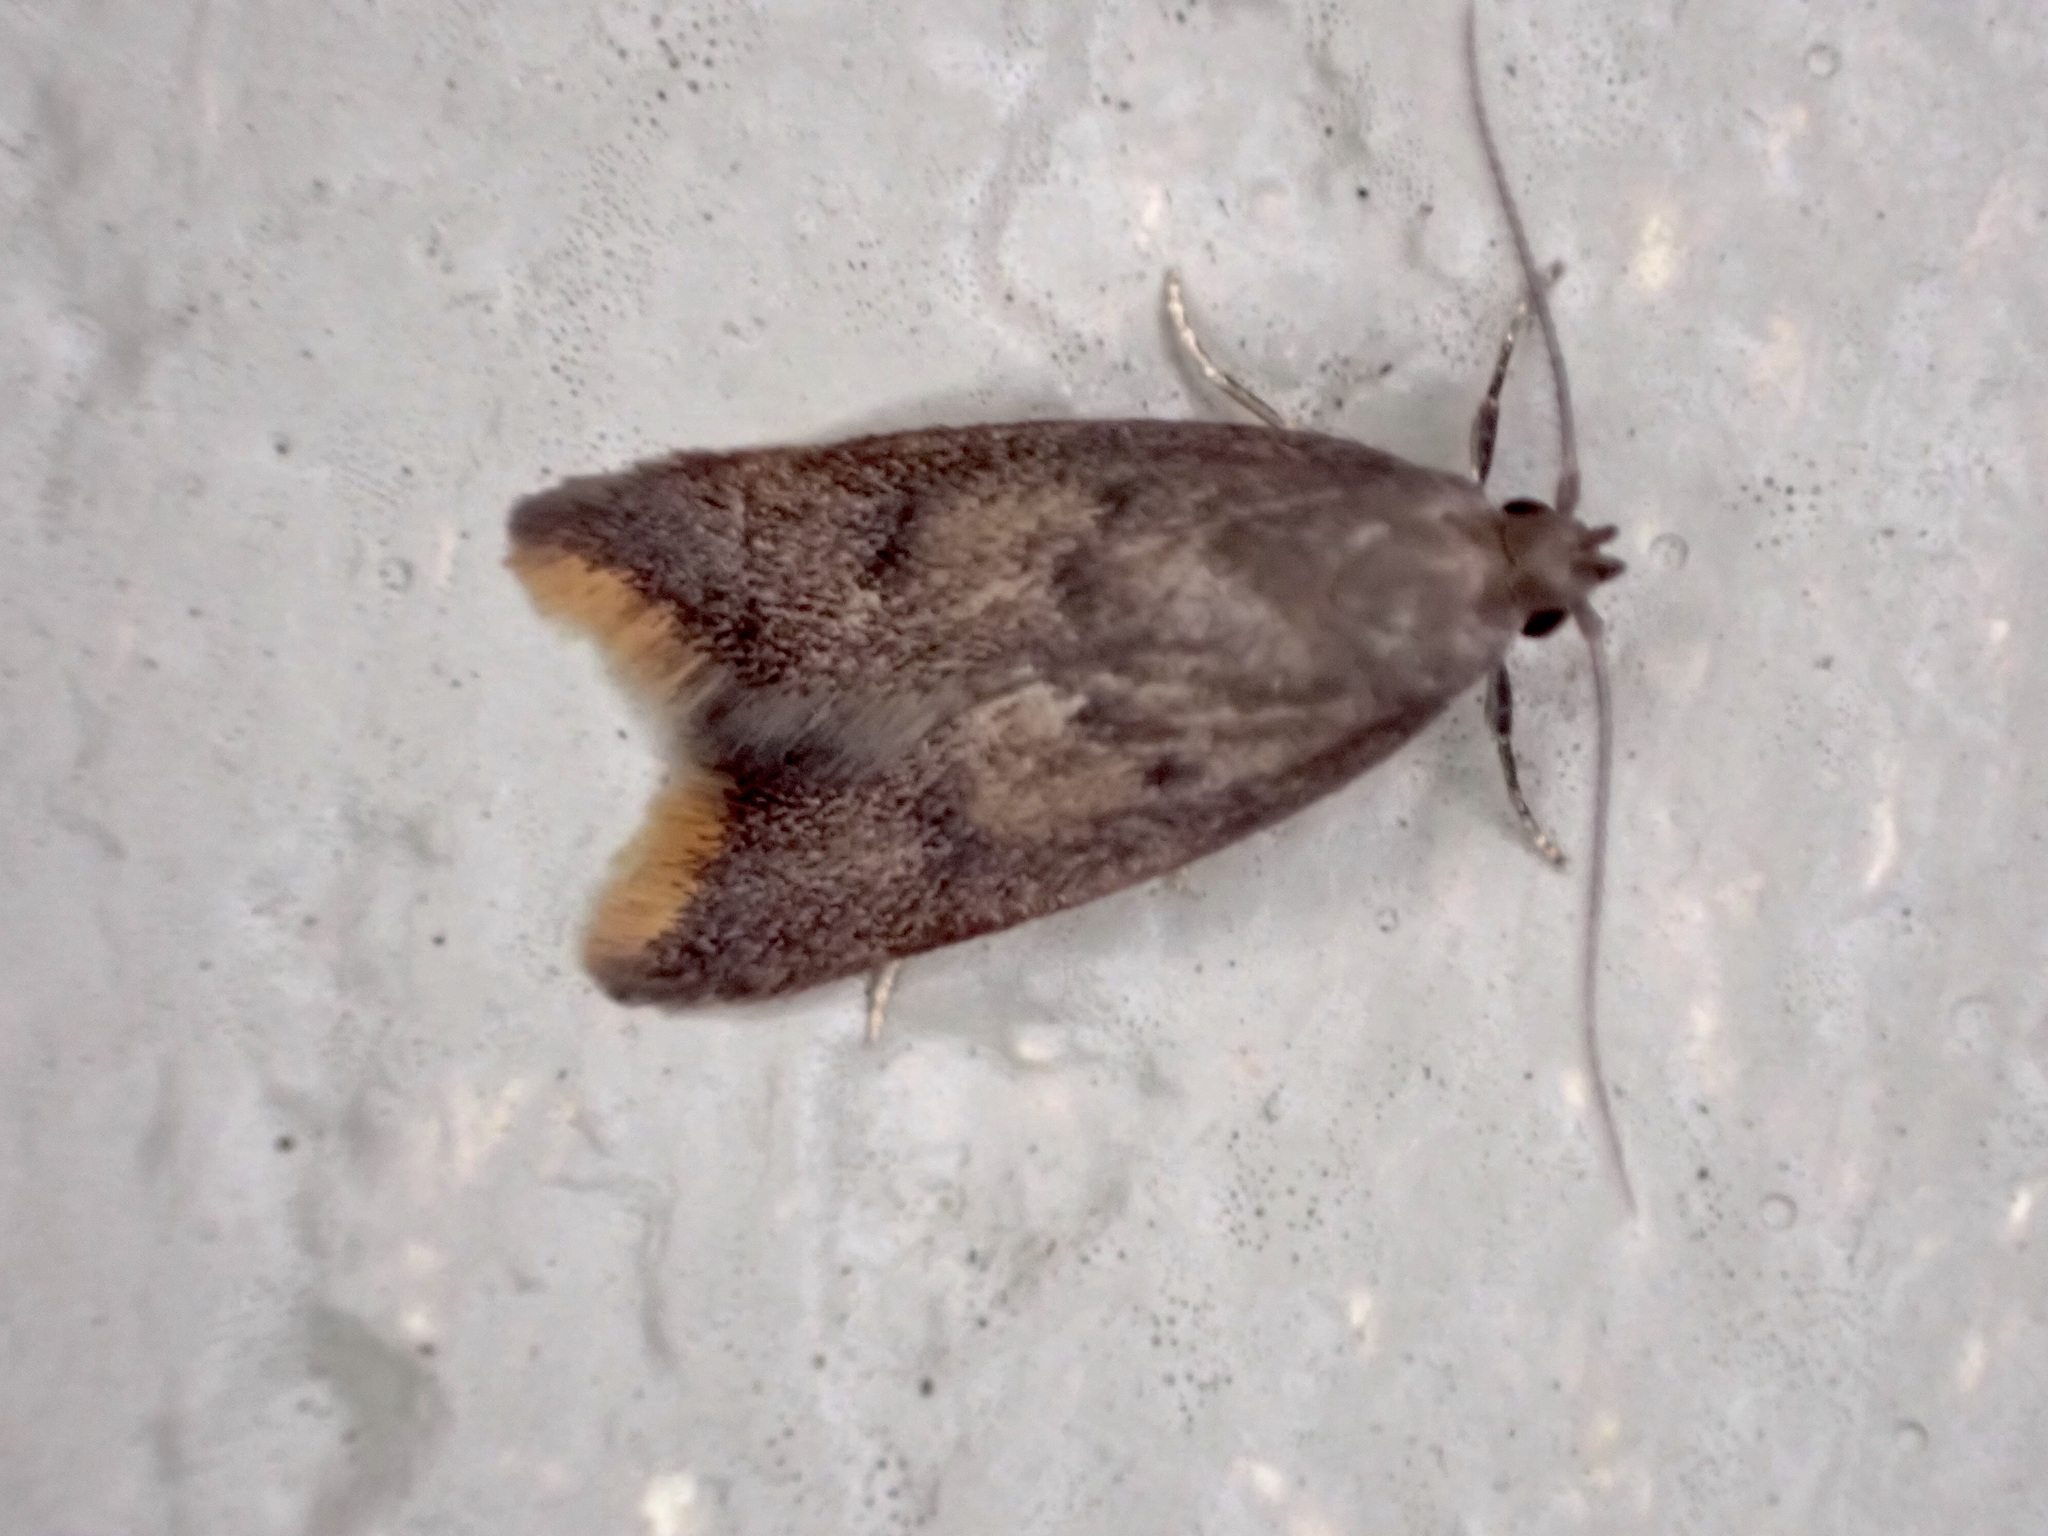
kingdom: Animalia
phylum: Arthropoda
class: Insecta
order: Lepidoptera
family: Oecophoridae
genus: Tachystola
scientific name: Tachystola acroxantha
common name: Ruddy streak
